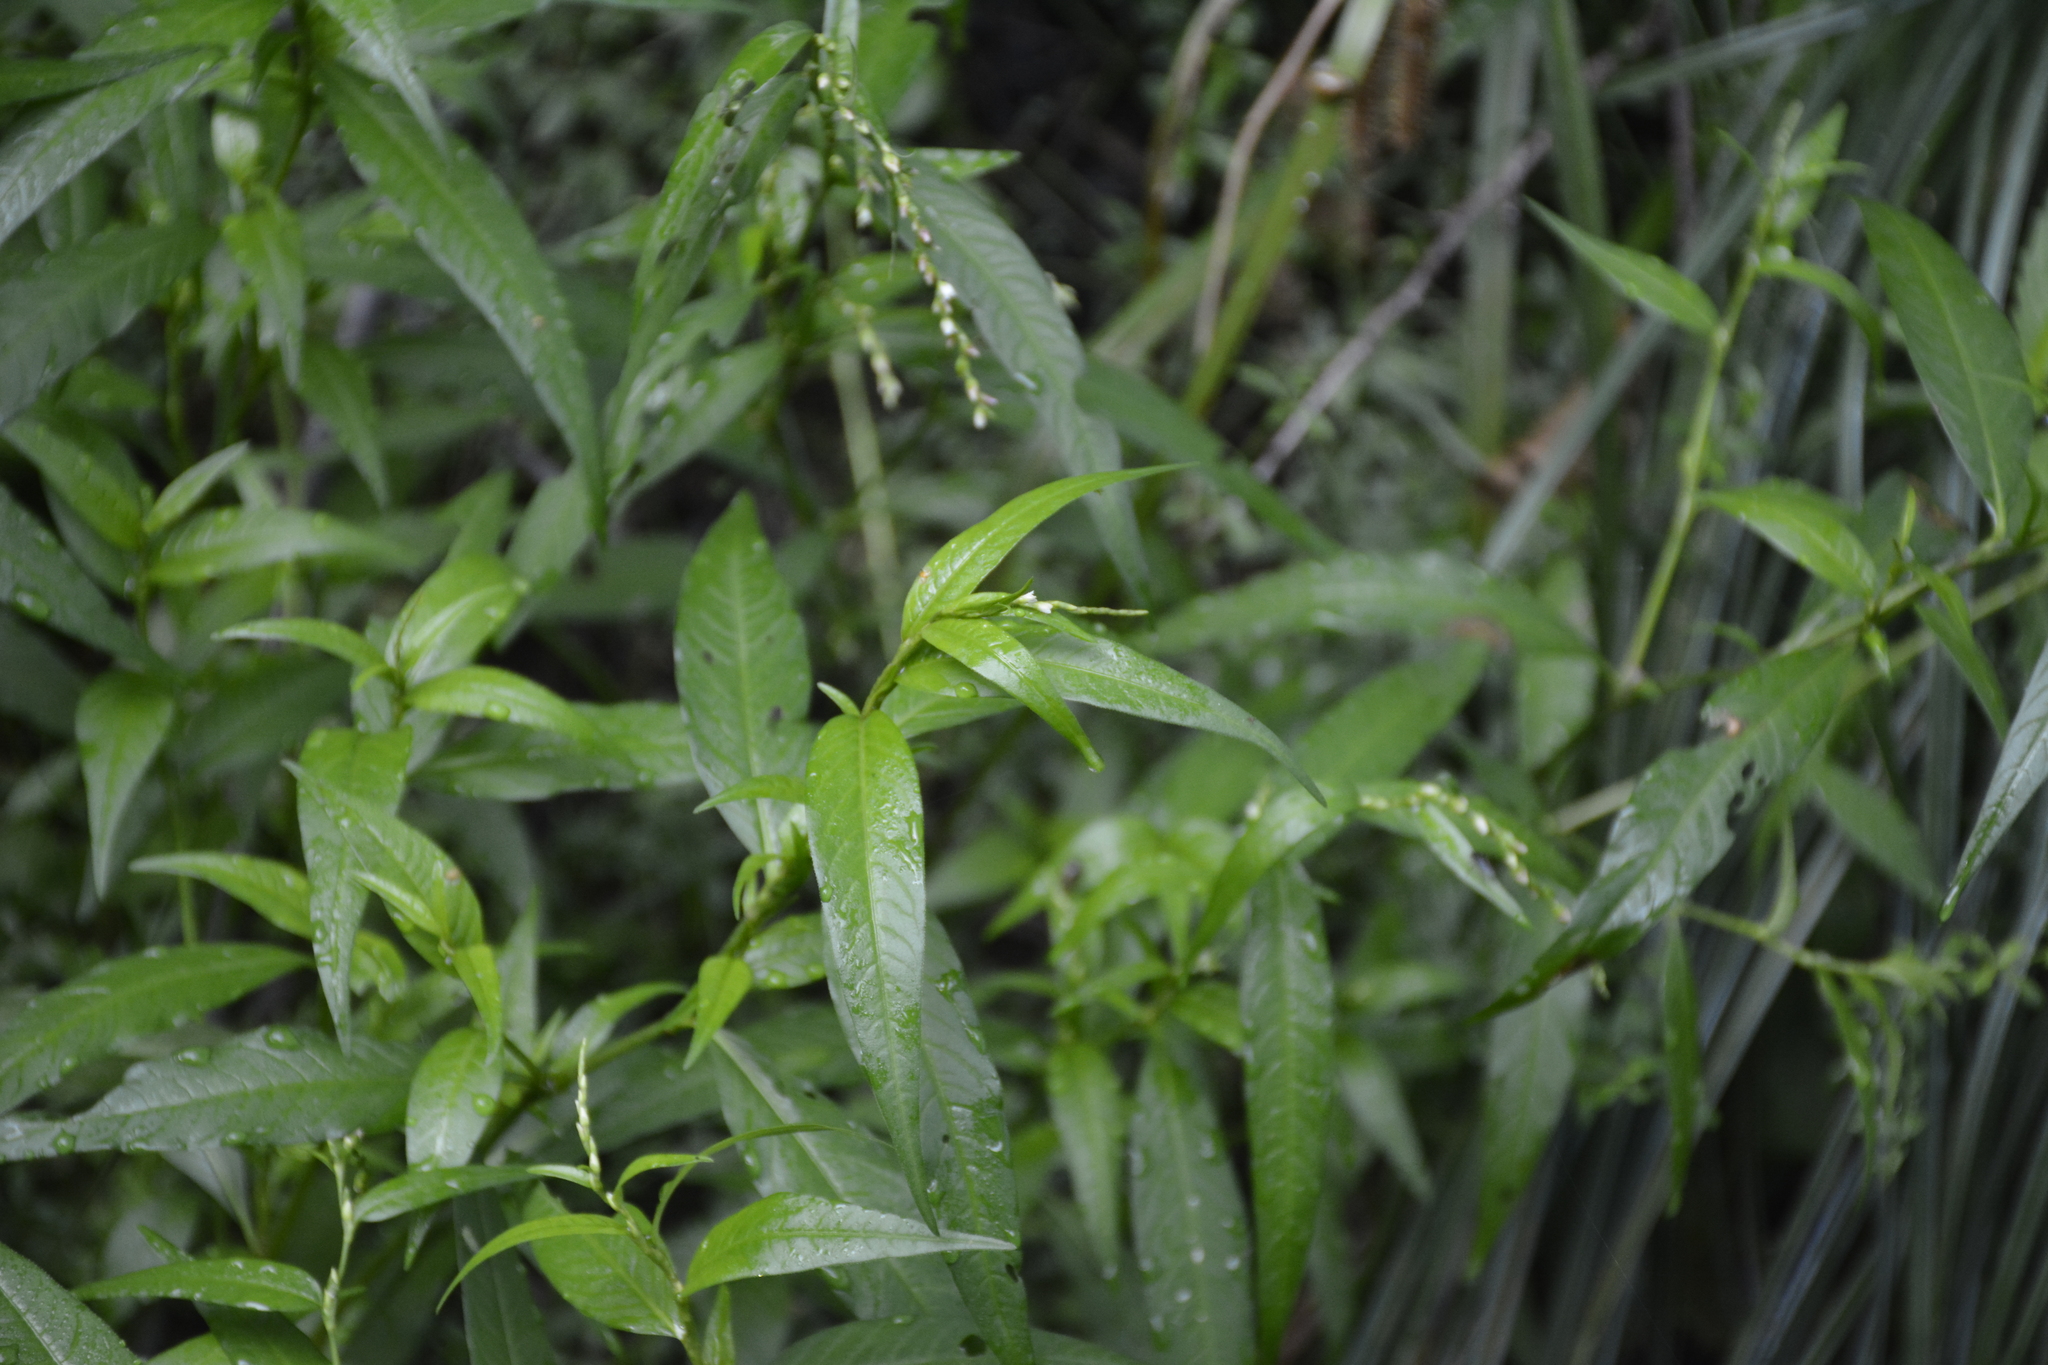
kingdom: Plantae
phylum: Tracheophyta
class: Magnoliopsida
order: Caryophyllales
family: Polygonaceae
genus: Persicaria
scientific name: Persicaria hydropiper
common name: Water-pepper
